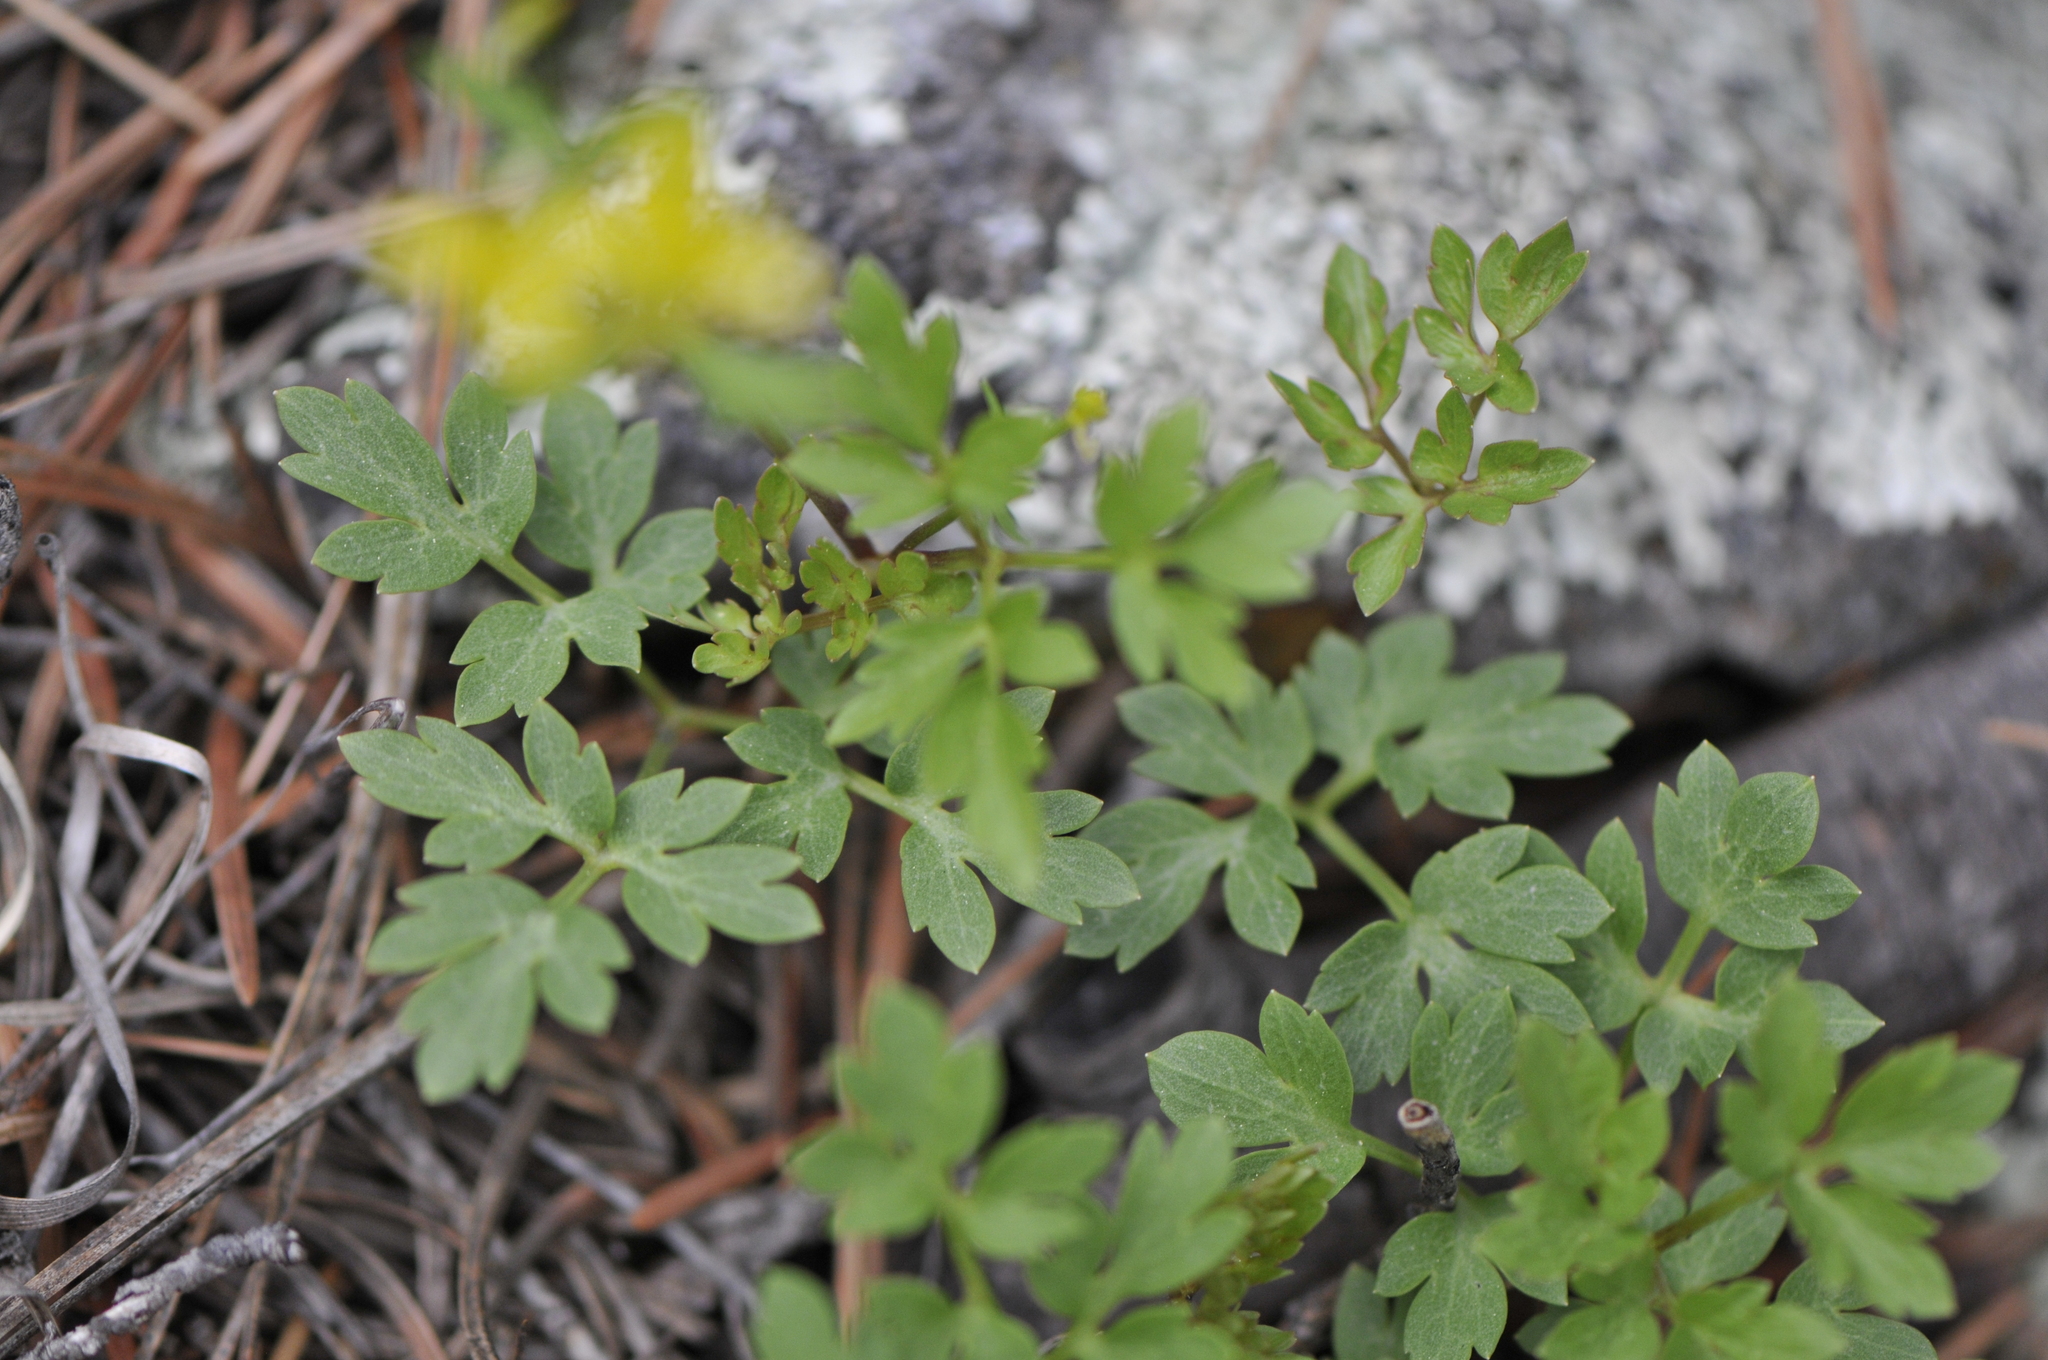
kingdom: Plantae
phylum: Tracheophyta
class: Magnoliopsida
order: Ranunculales
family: Ranunculaceae
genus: Cyrtorhyncha
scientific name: Cyrtorhyncha ranunculina
